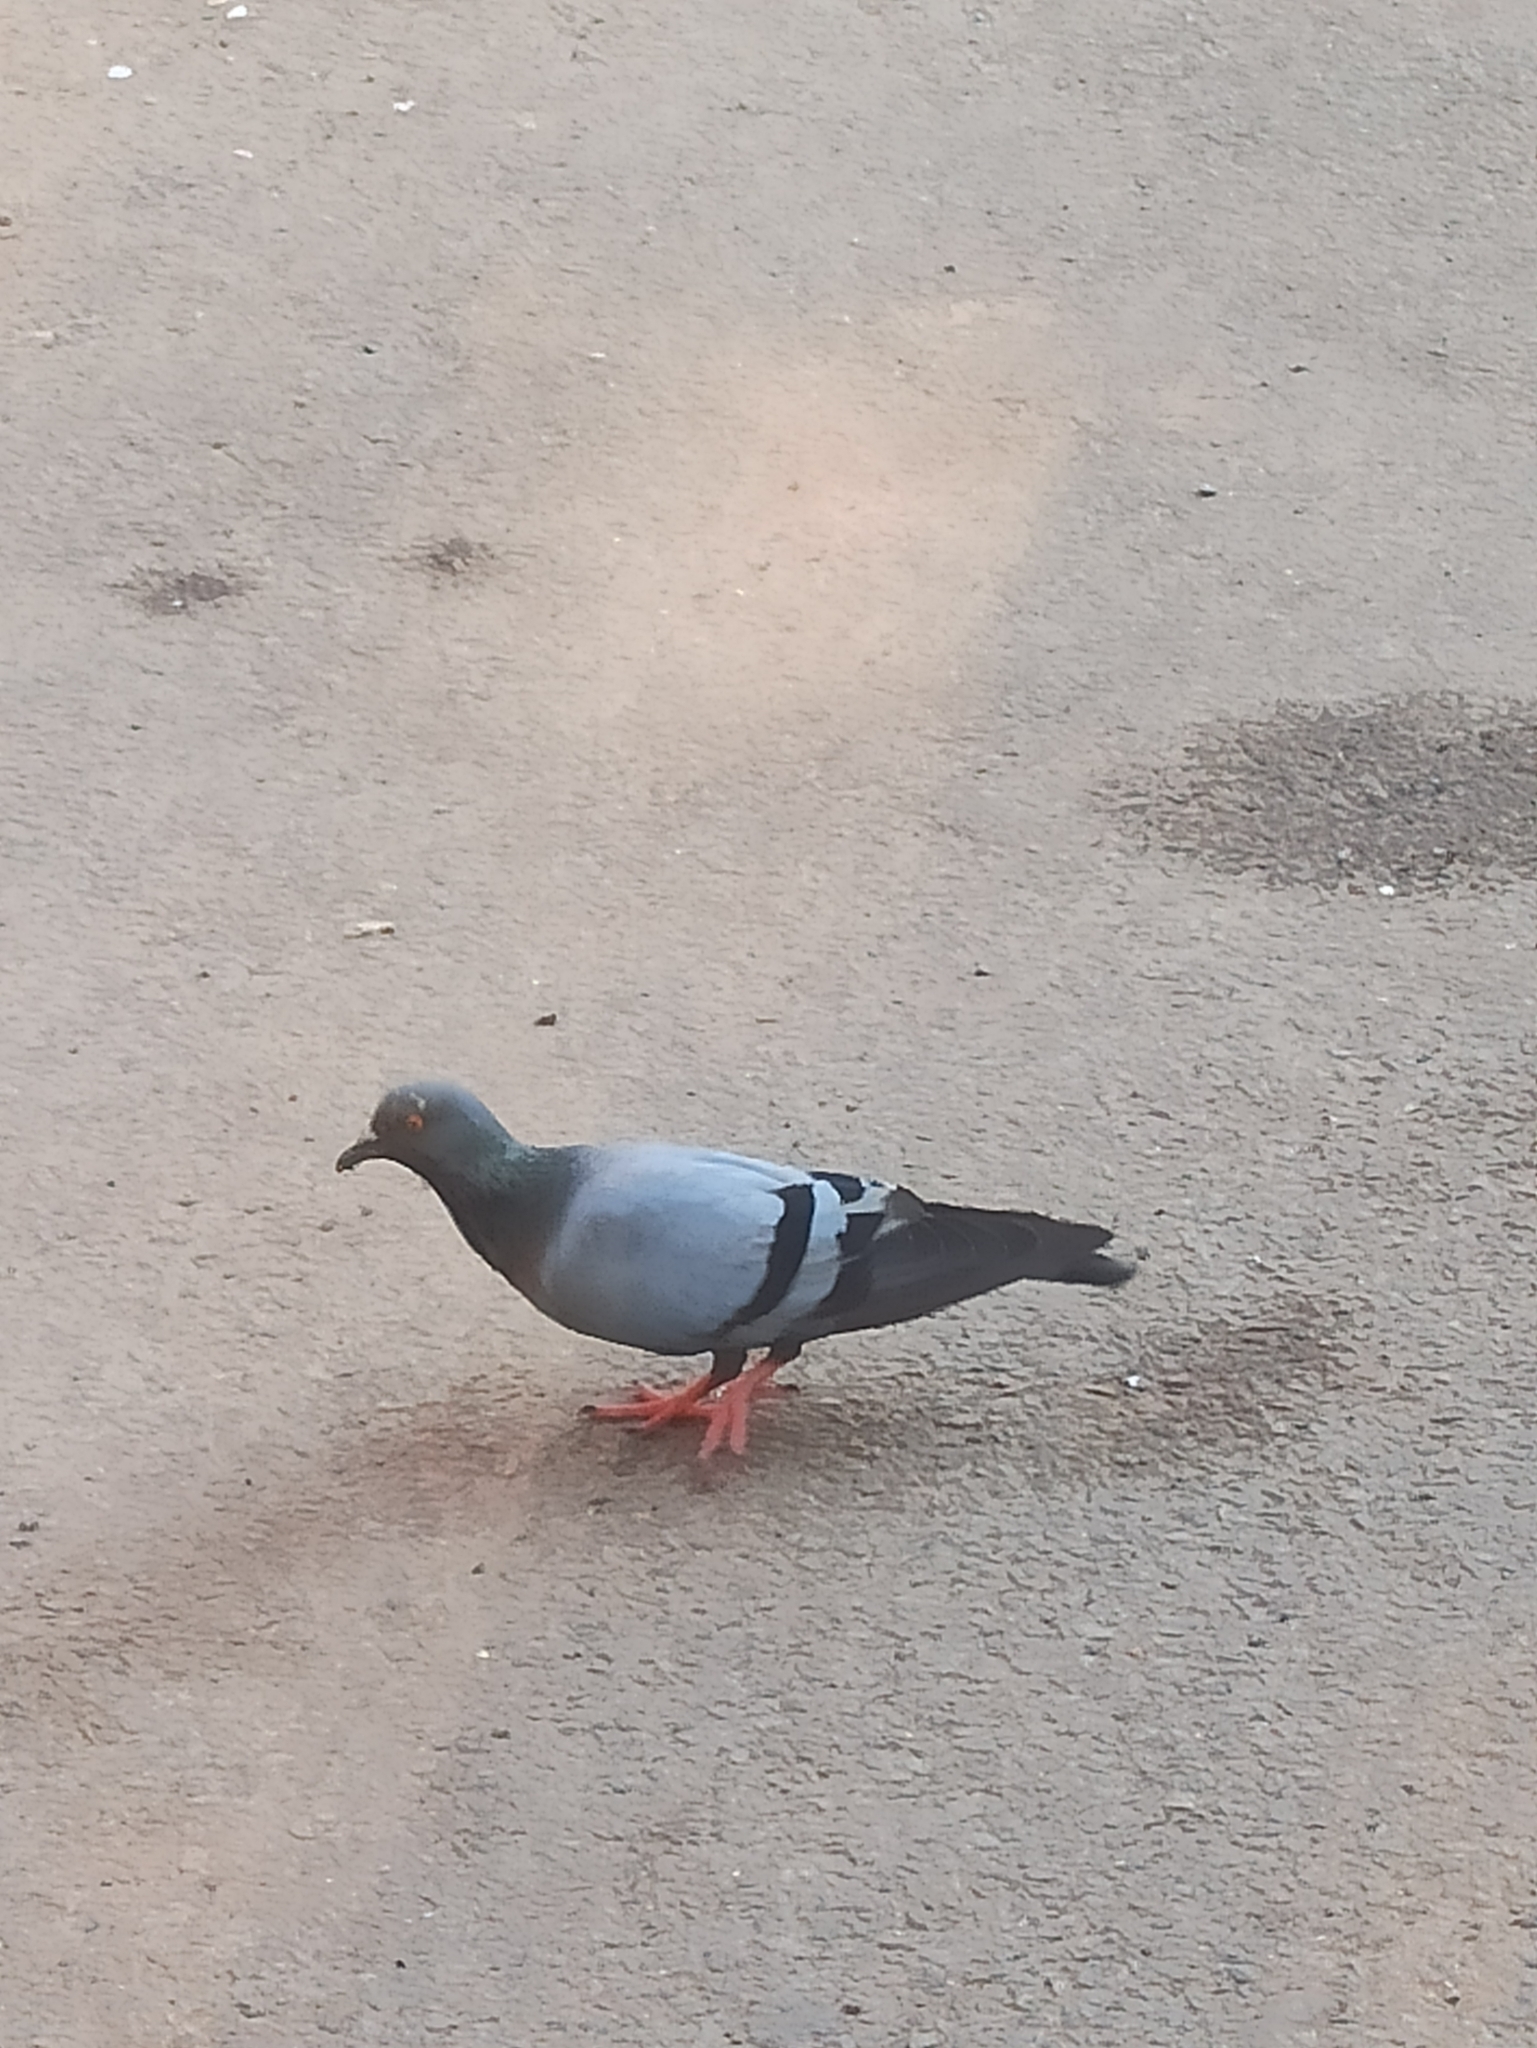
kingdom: Animalia
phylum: Chordata
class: Aves
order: Columbiformes
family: Columbidae
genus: Columba
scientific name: Columba livia
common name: Rock pigeon
